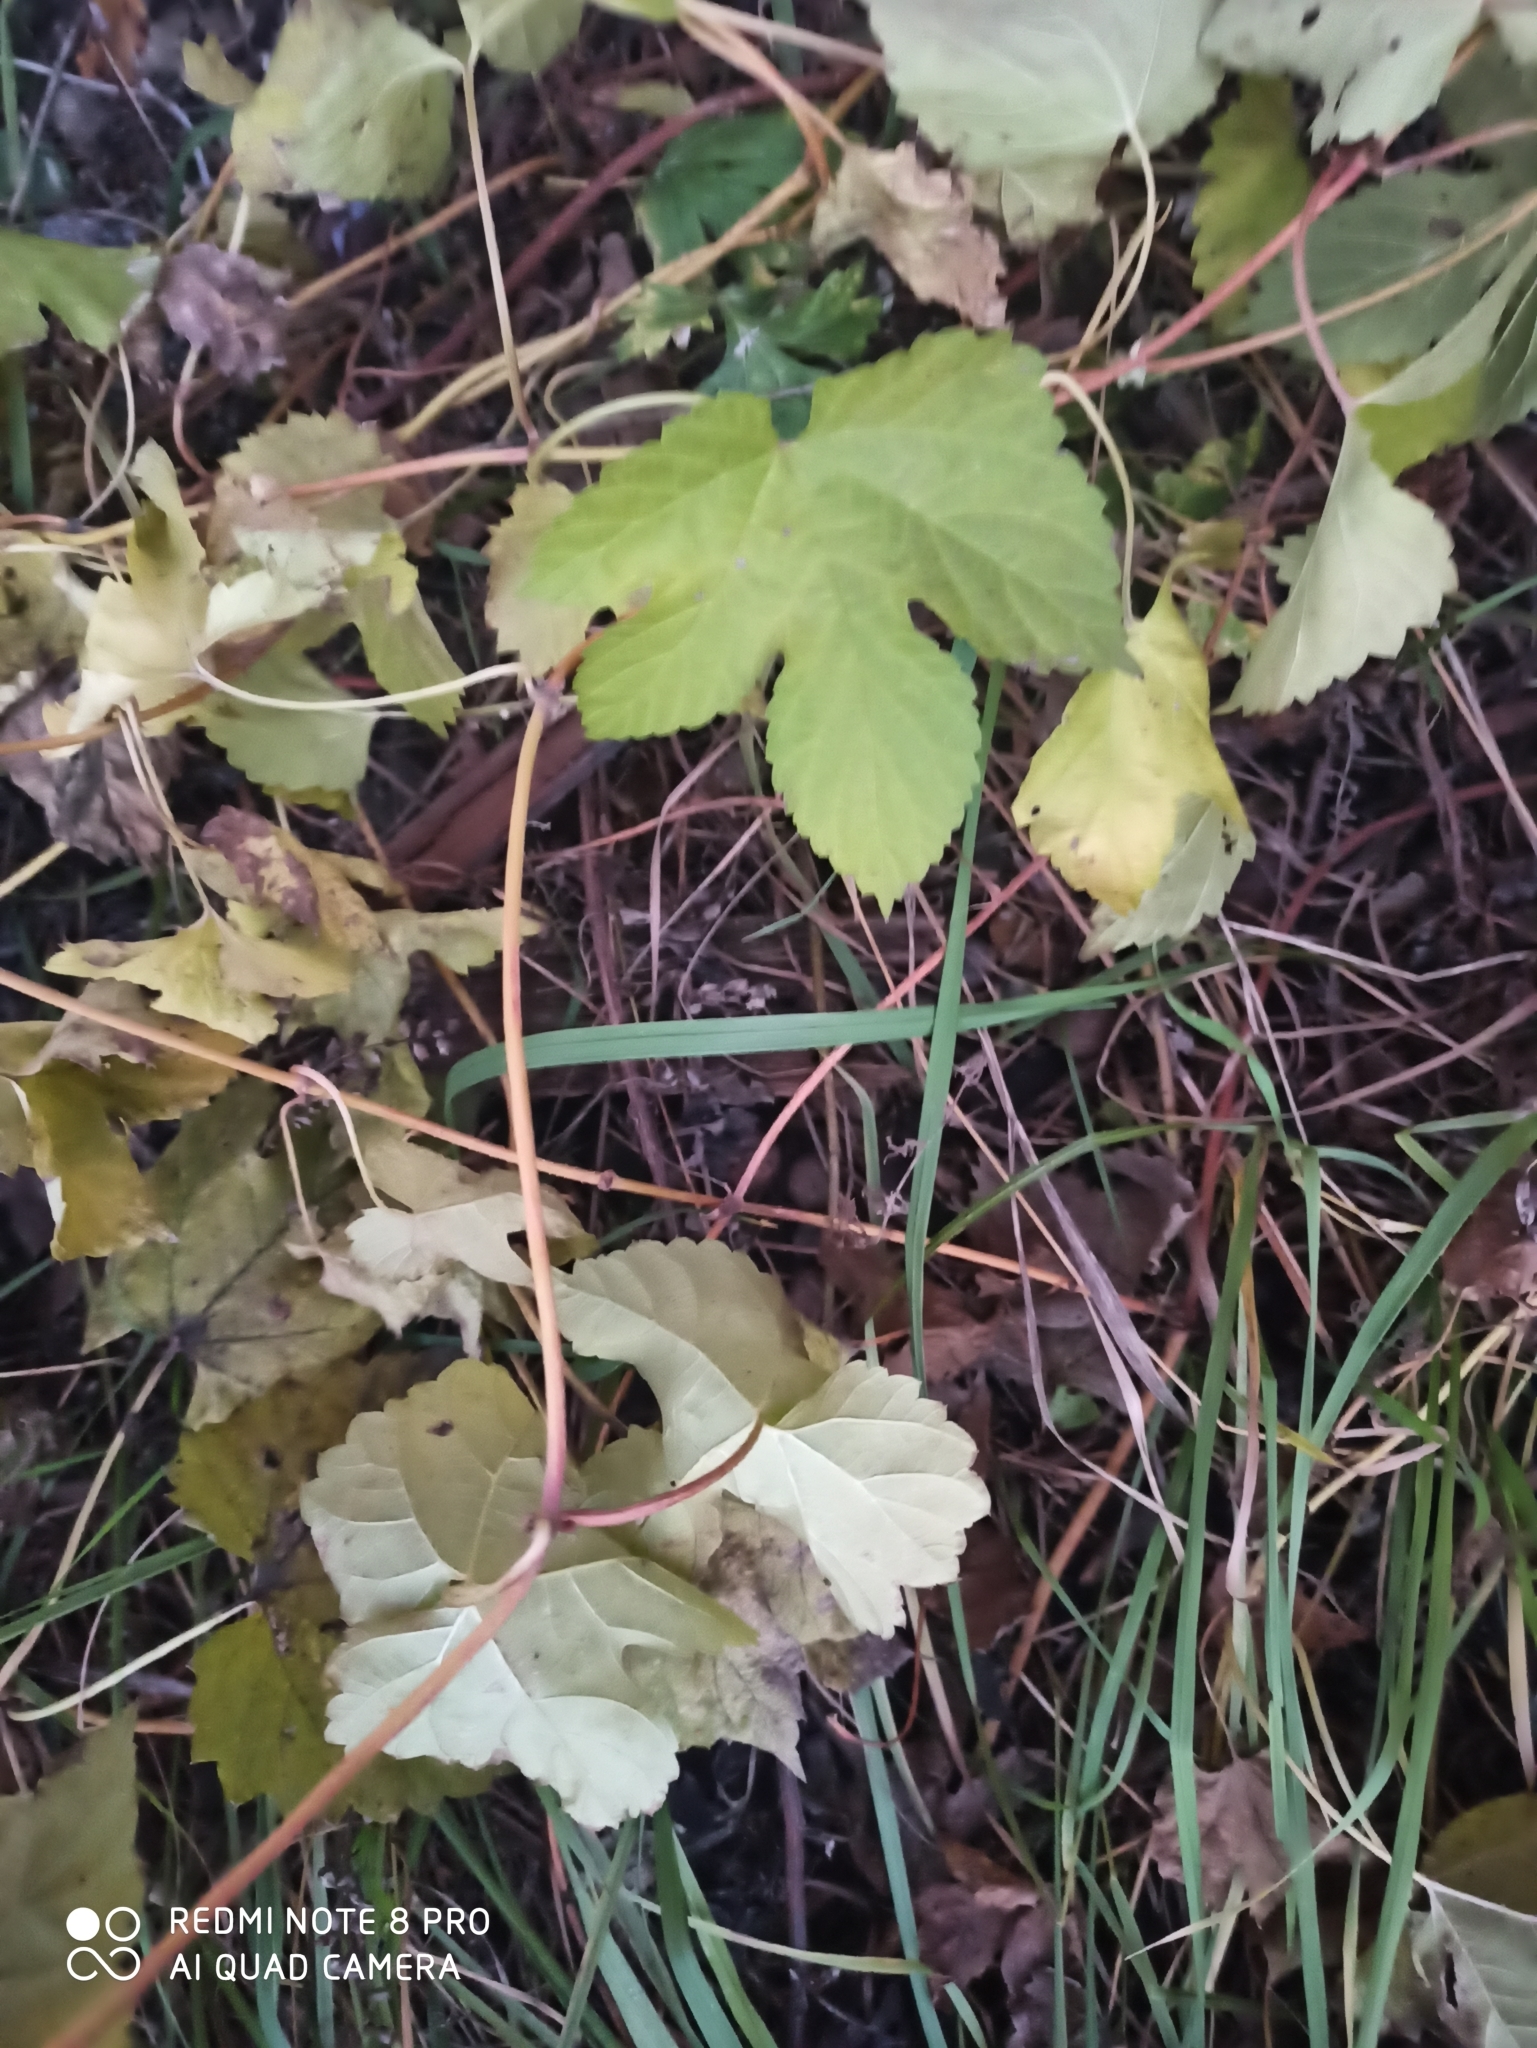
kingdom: Plantae
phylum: Tracheophyta
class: Magnoliopsida
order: Rosales
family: Cannabaceae
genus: Humulus
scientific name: Humulus lupulus
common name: Hop
